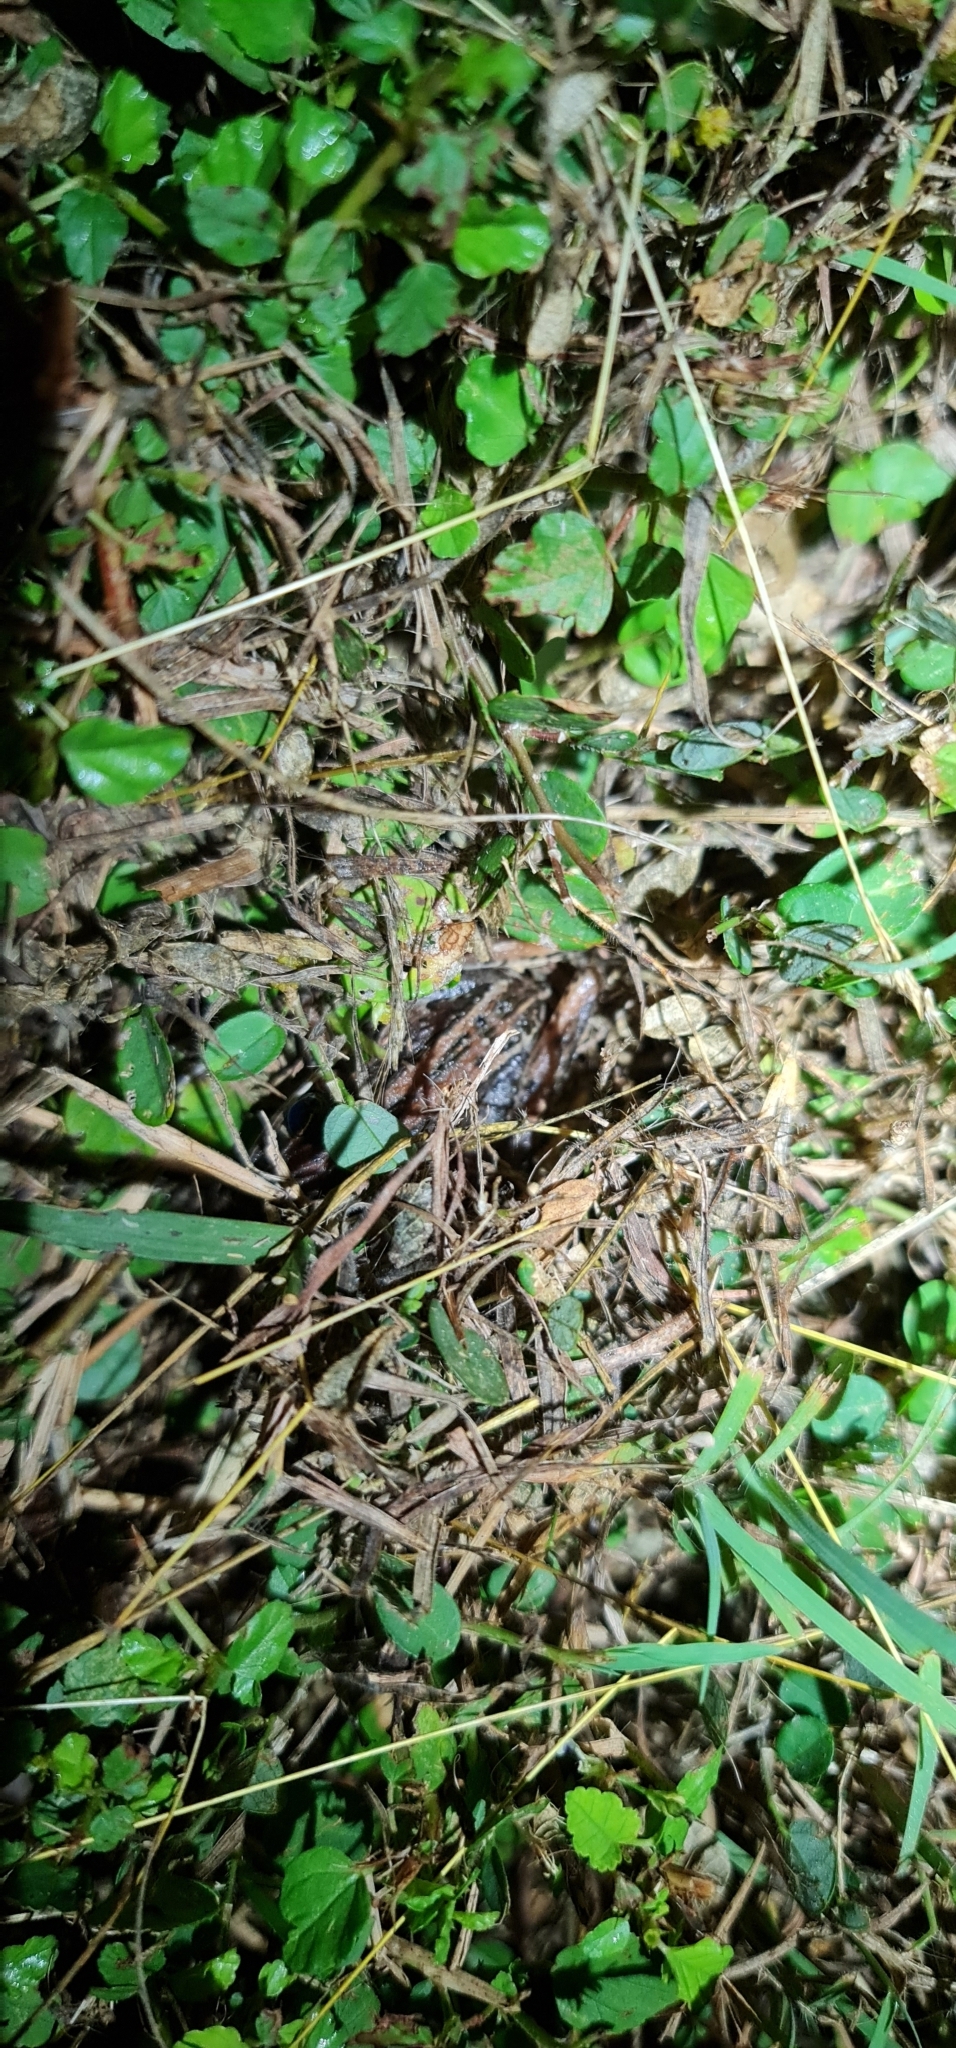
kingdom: Animalia
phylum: Chordata
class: Amphibia
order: Anura
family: Pelodryadidae
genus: Litoria
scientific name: Litoria nasuta
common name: Rocket frog
